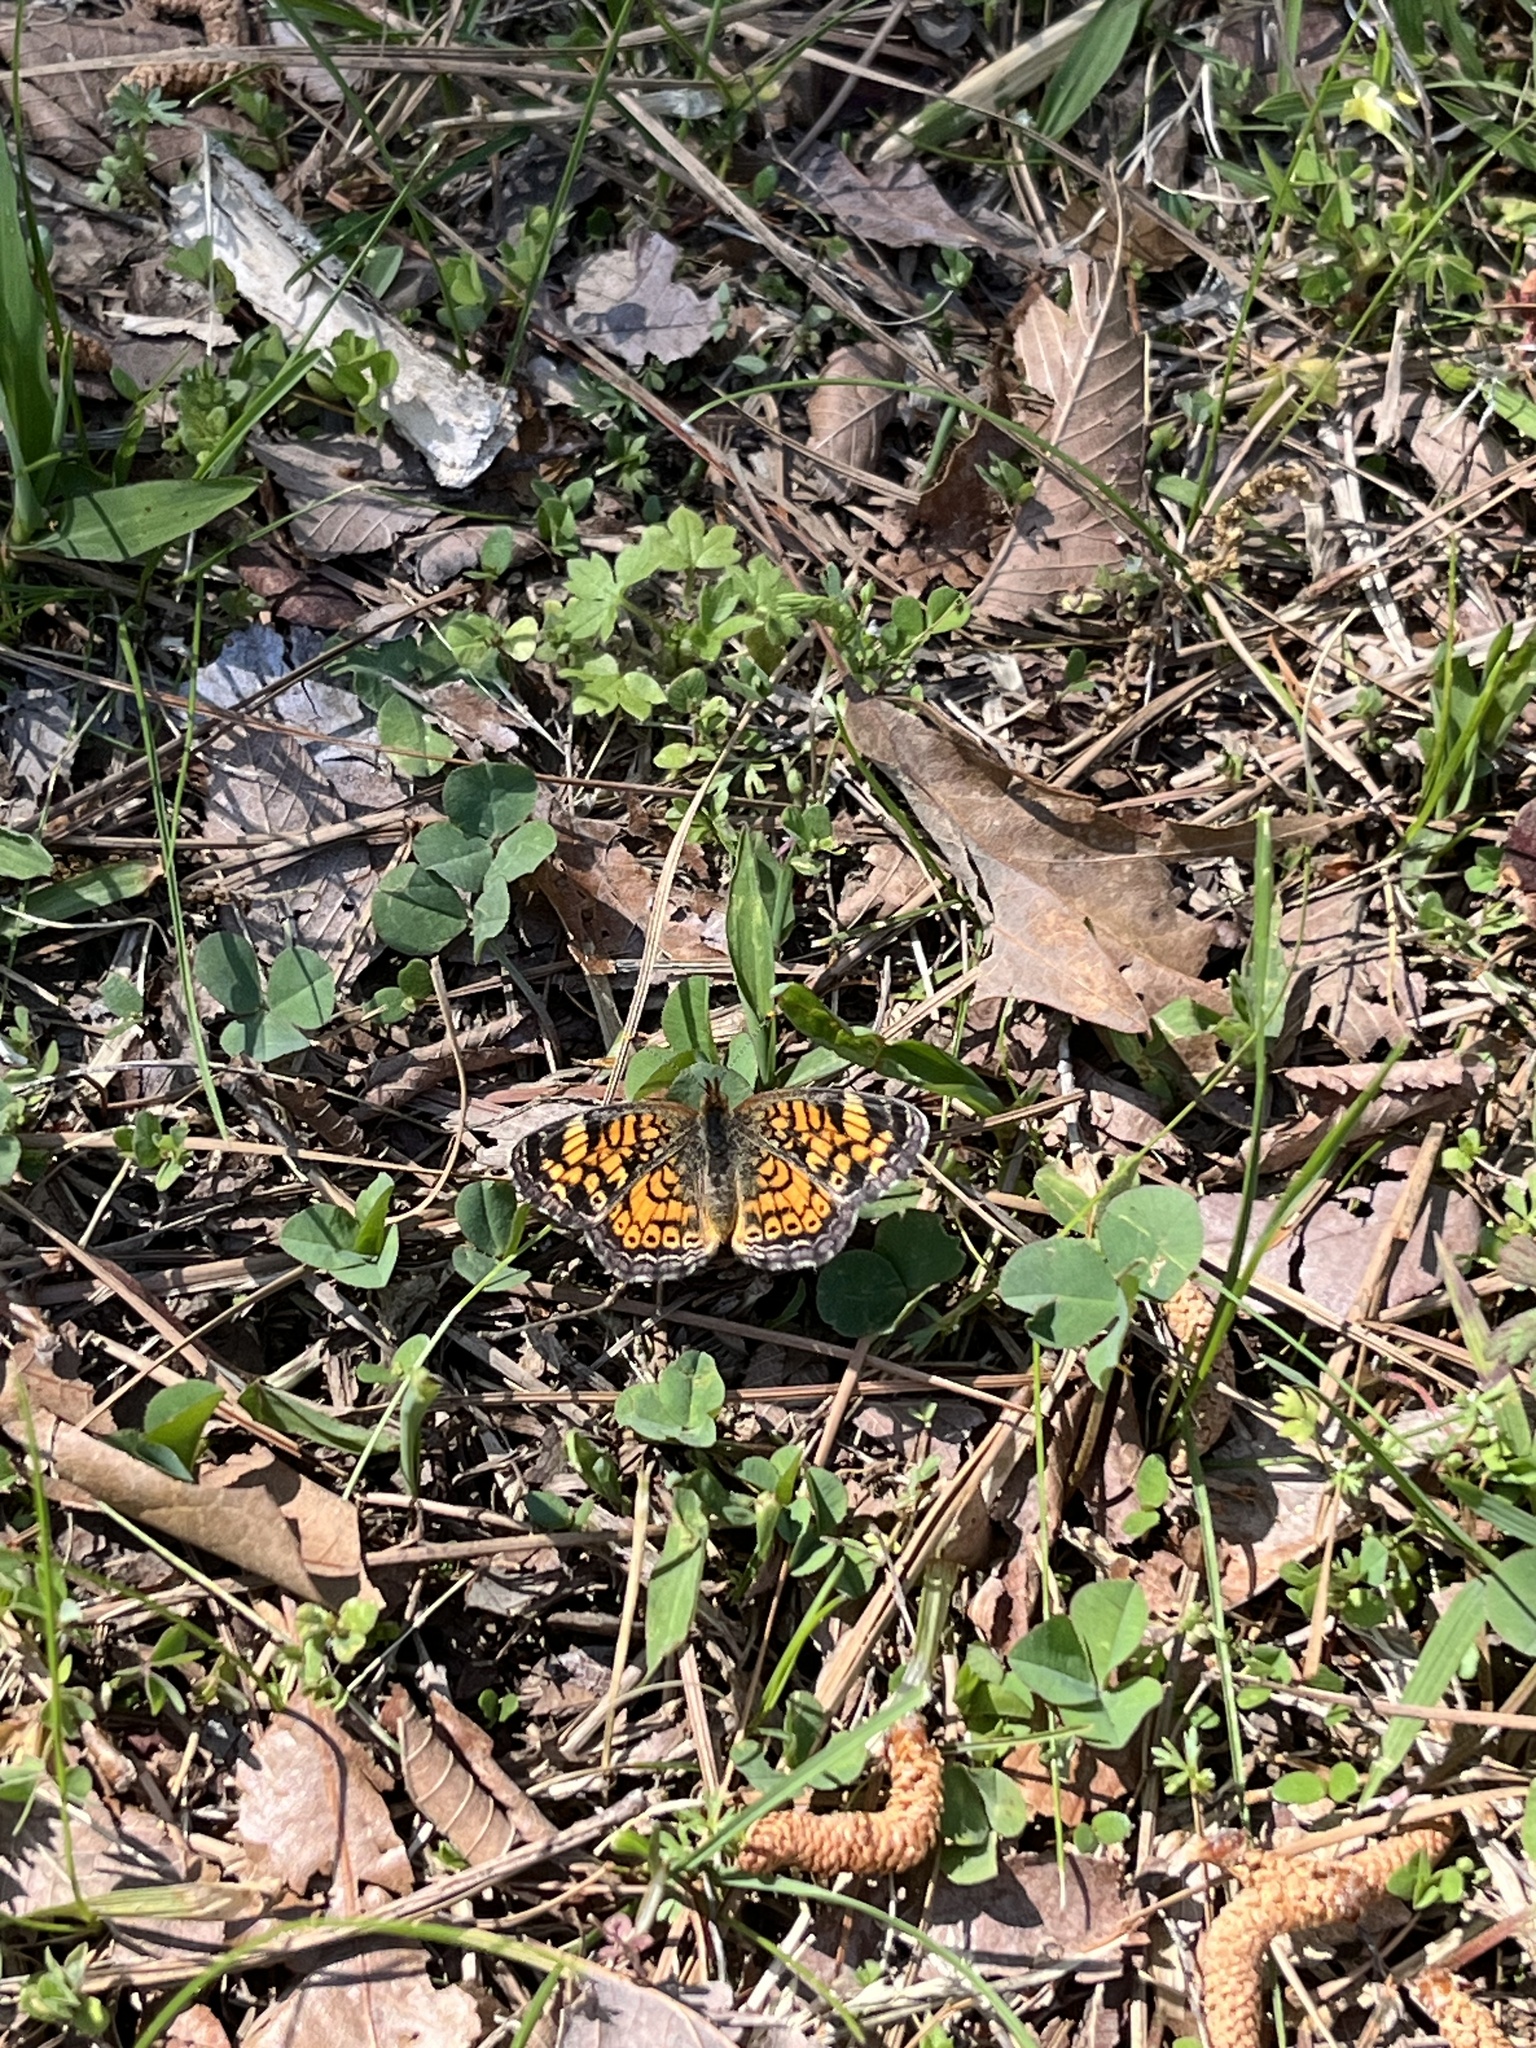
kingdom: Animalia
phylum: Arthropoda
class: Insecta
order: Lepidoptera
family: Nymphalidae
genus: Phyciodes
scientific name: Phyciodes tharos
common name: Pearl crescent
